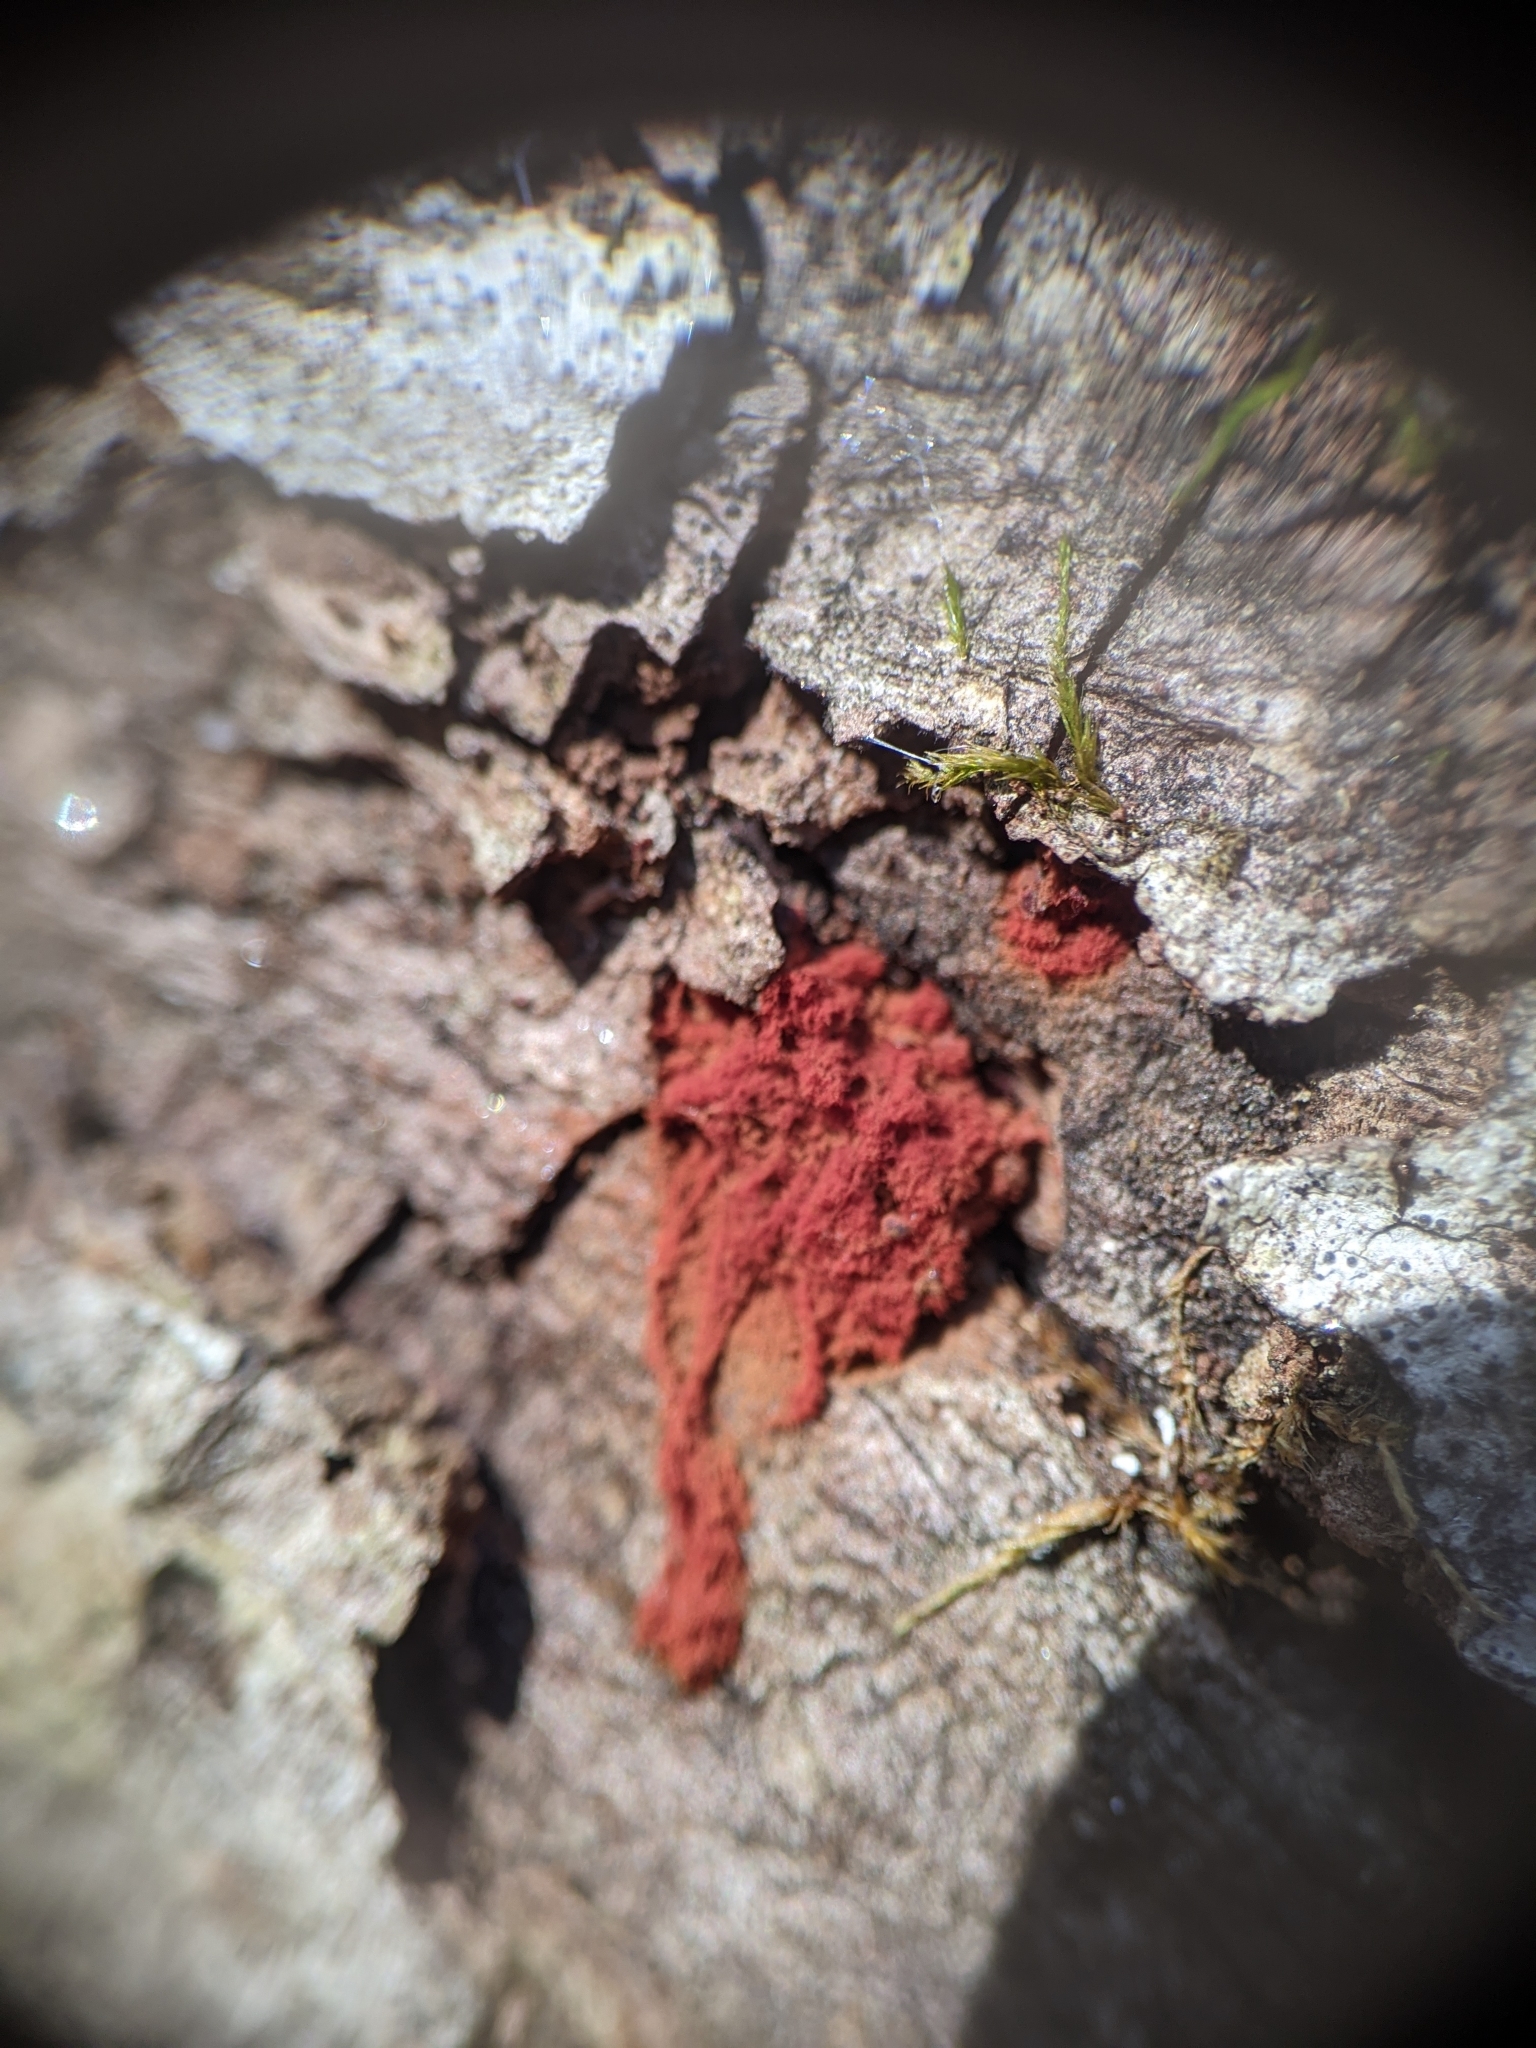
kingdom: Protozoa
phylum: Mycetozoa
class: Myxomycetes
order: Trichiales
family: Trichiaceae
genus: Metatrichia
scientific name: Metatrichia vesparia
